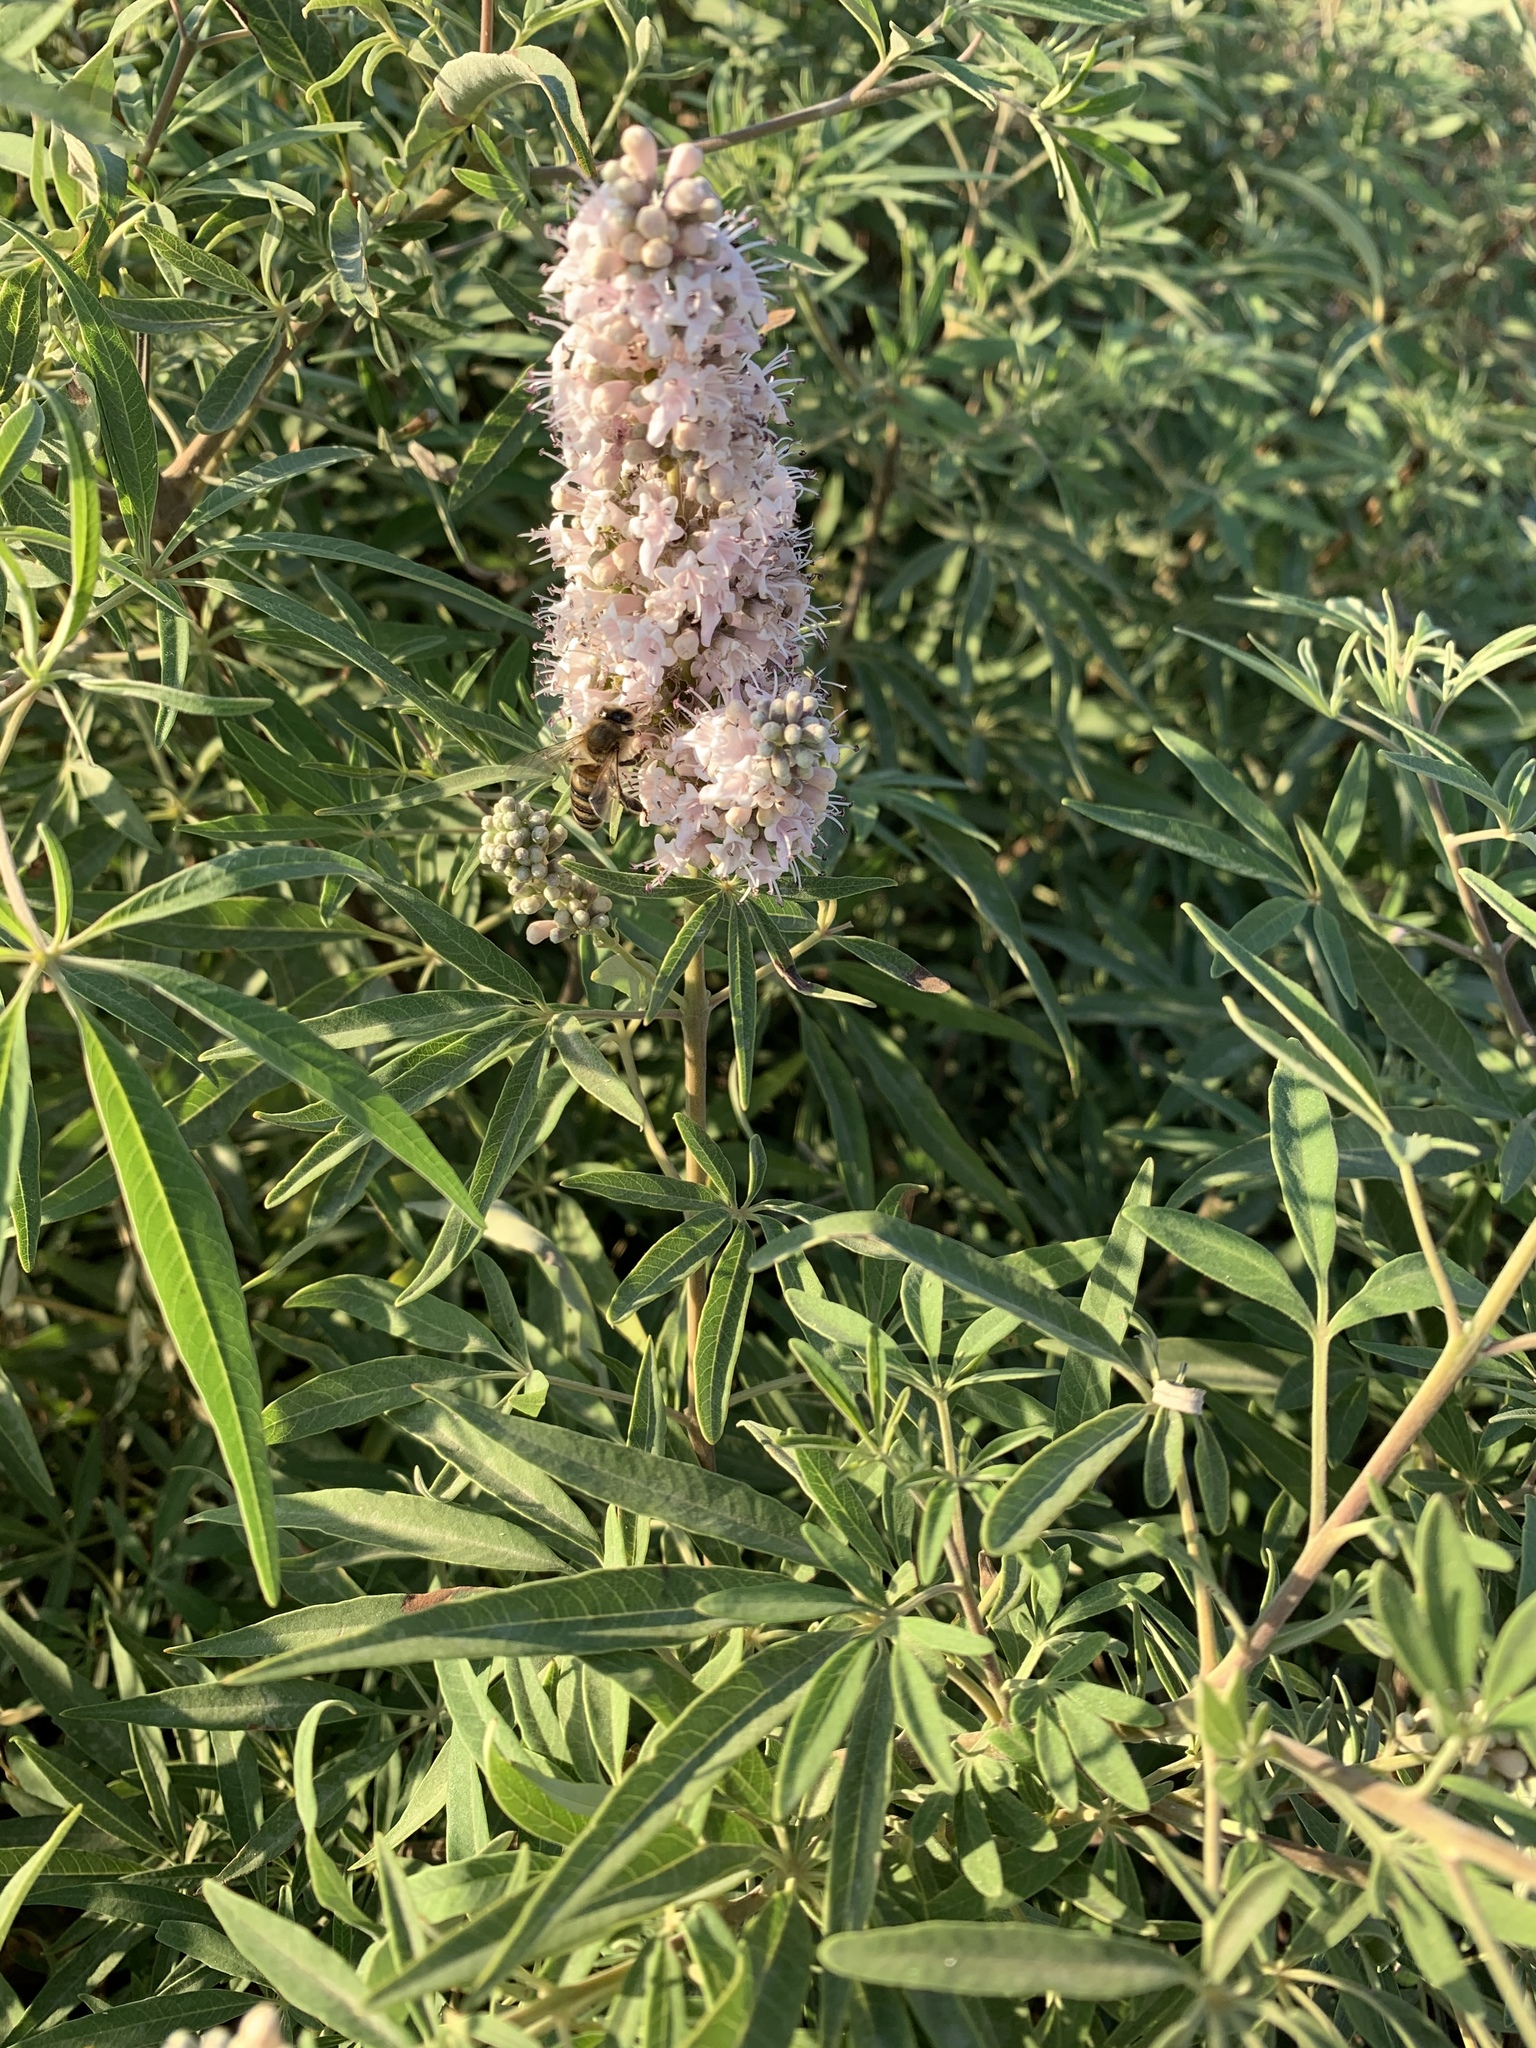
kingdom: Plantae
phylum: Tracheophyta
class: Magnoliopsida
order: Lamiales
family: Lamiaceae
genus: Vitex
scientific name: Vitex agnus-castus
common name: Chasteberry
